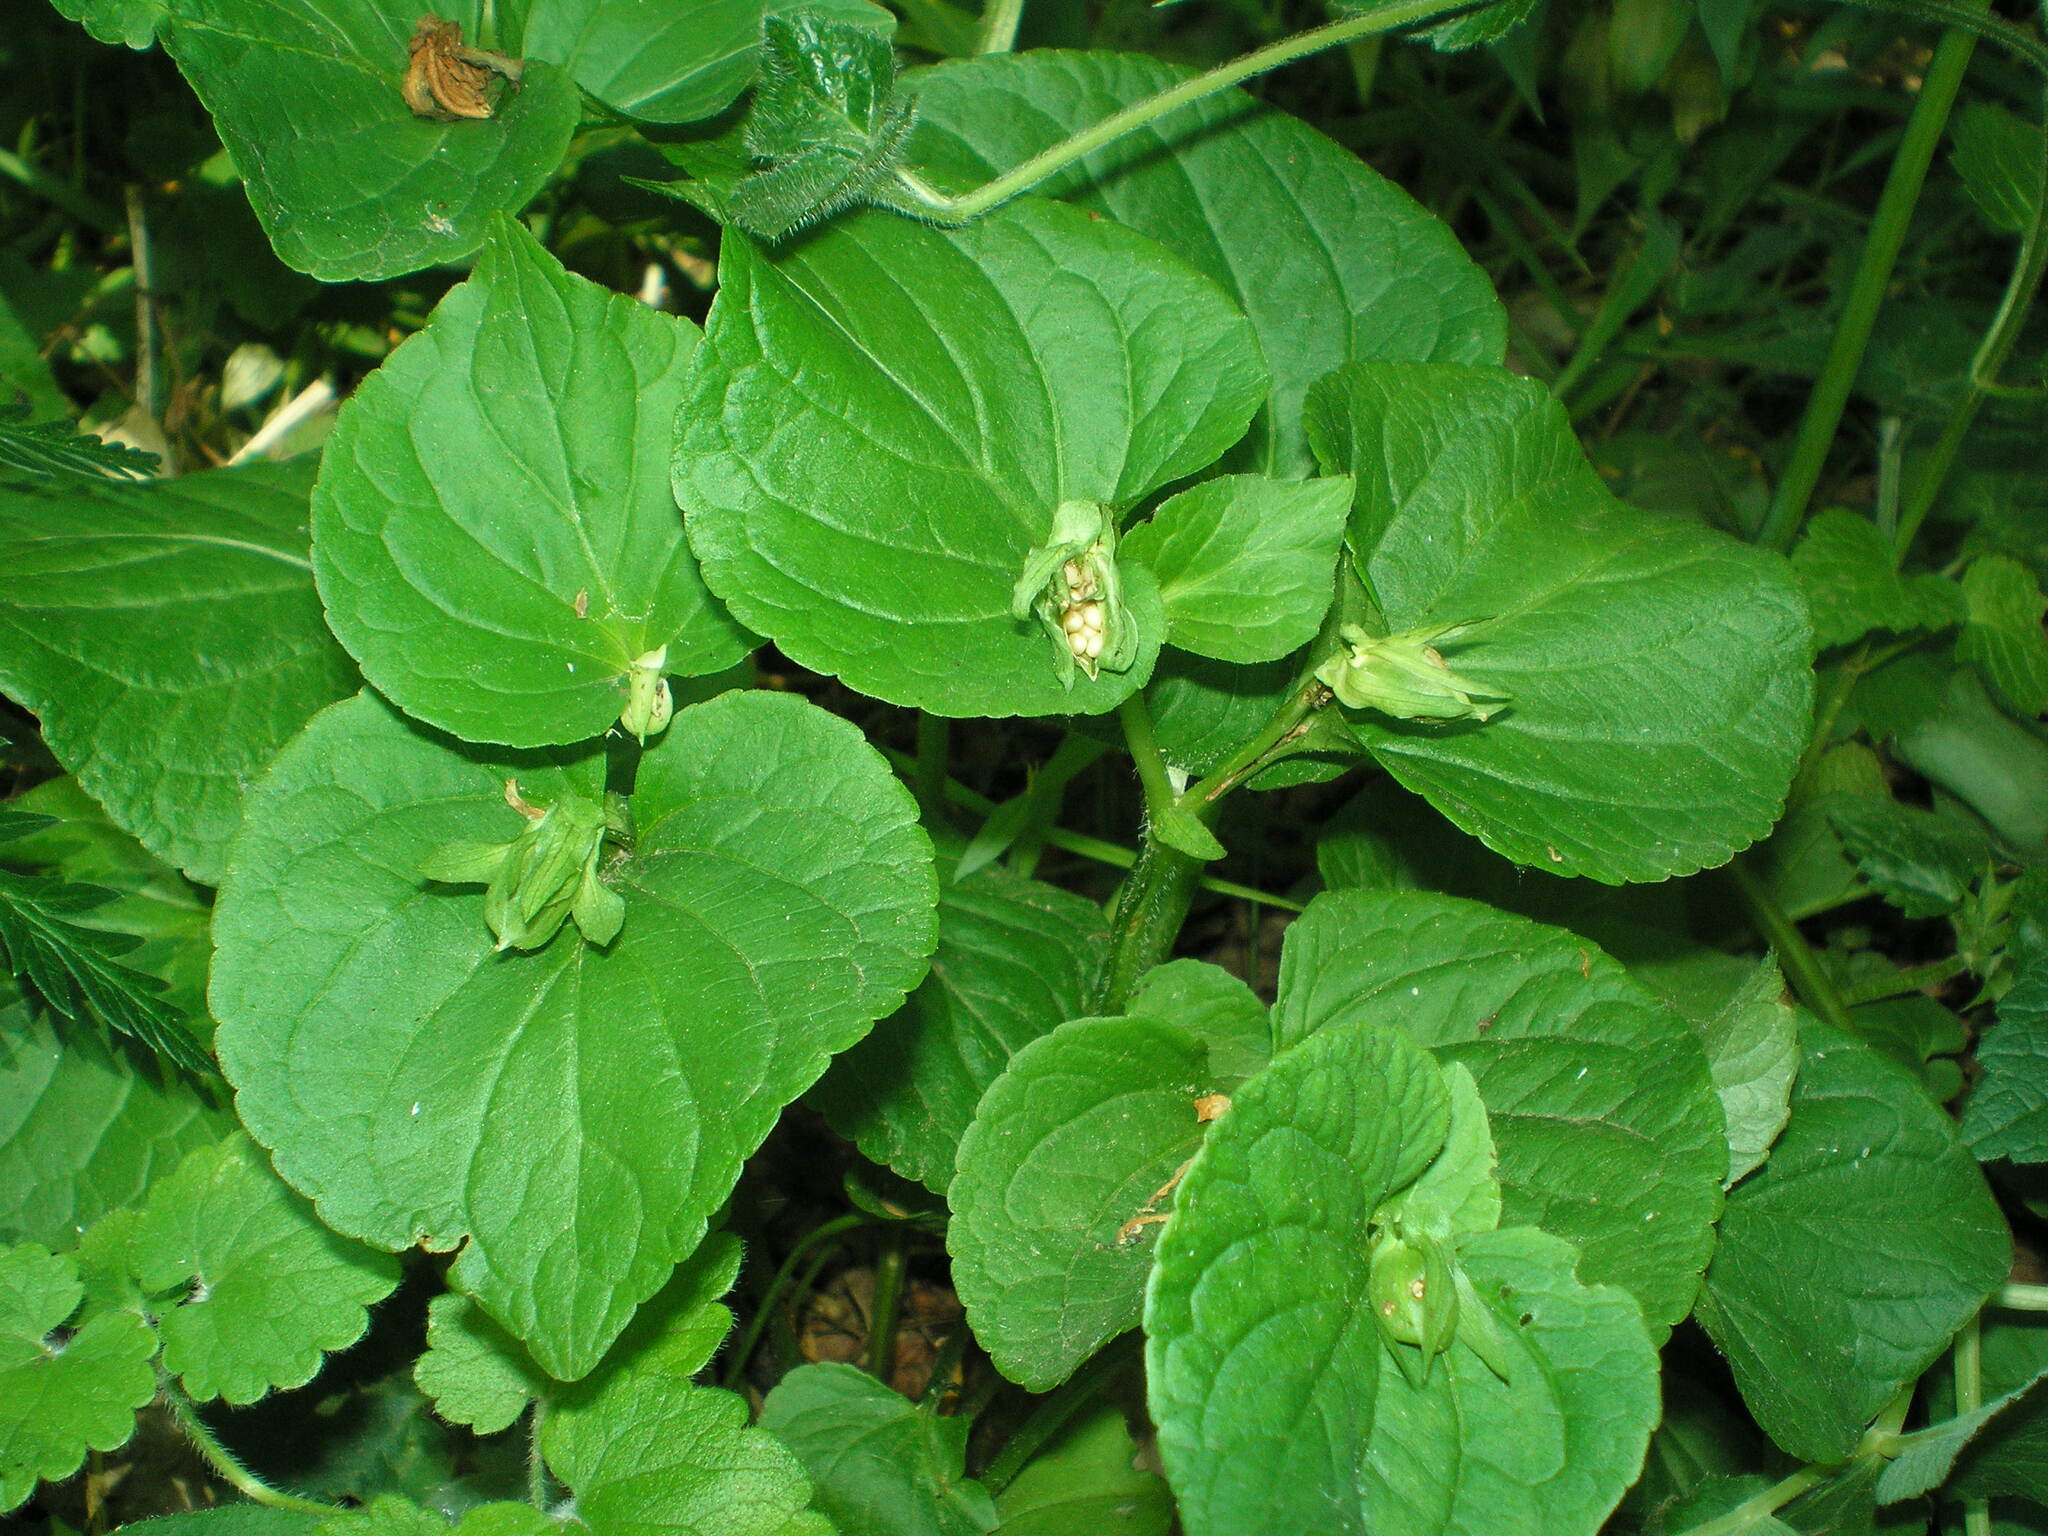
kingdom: Plantae
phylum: Tracheophyta
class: Magnoliopsida
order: Malpighiales
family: Violaceae
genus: Viola
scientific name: Viola mirabilis
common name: Wonder violet
